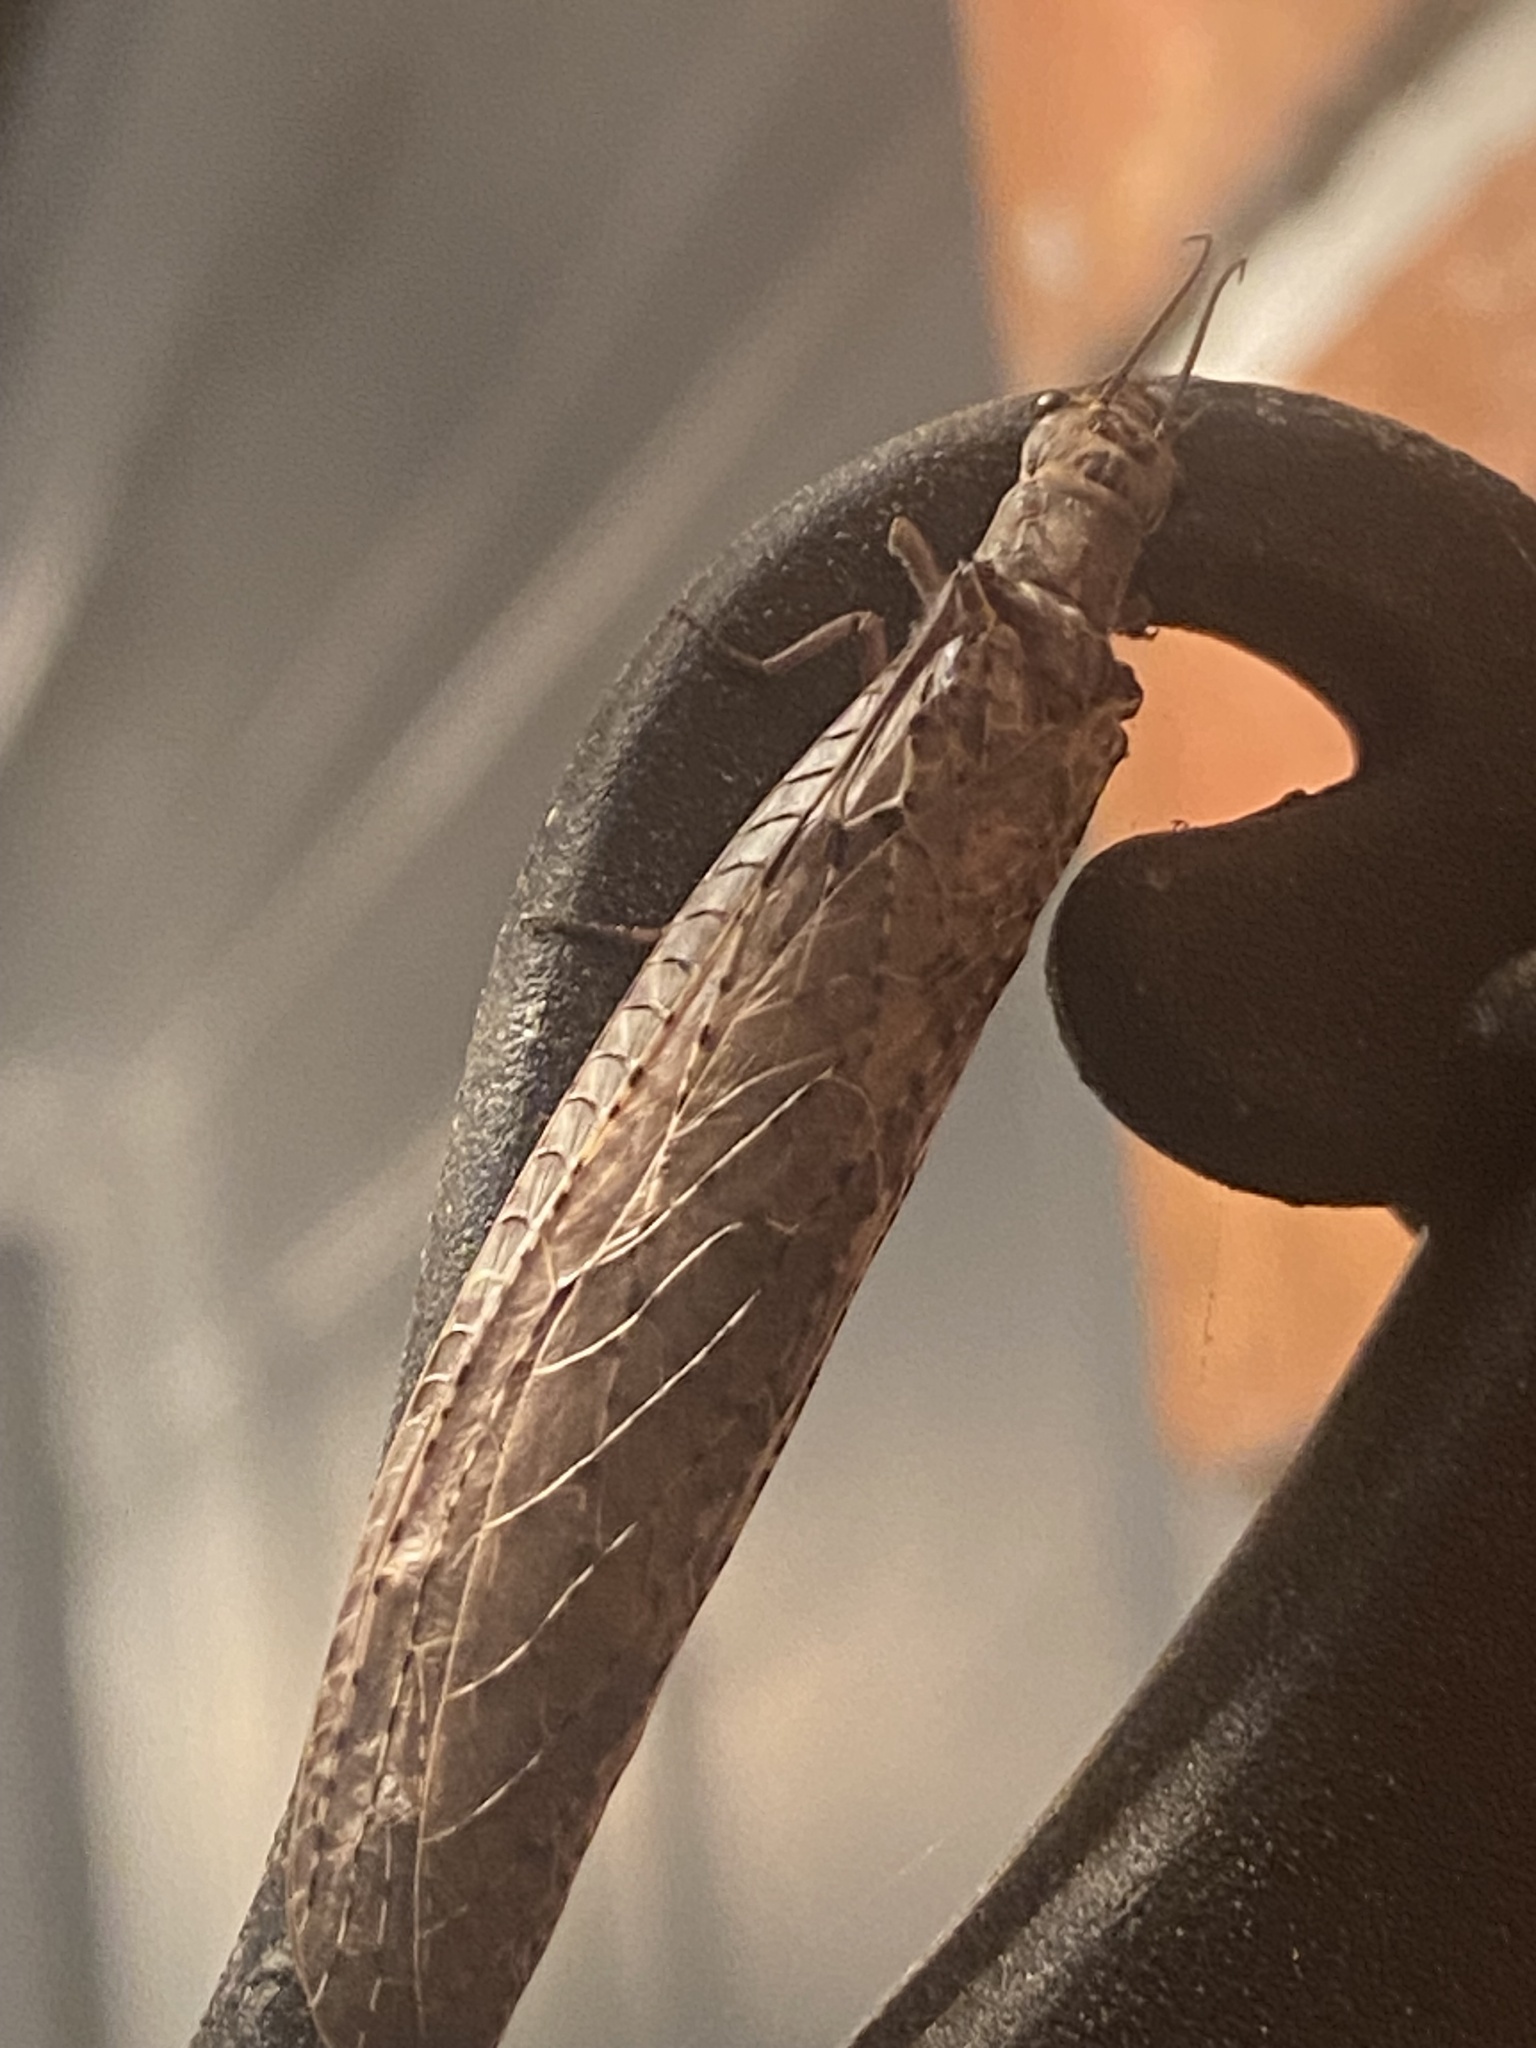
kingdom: Animalia
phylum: Arthropoda
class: Insecta
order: Megaloptera
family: Corydalidae
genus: Chauliodes
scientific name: Chauliodes rastricornis
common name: Spring fishfly
